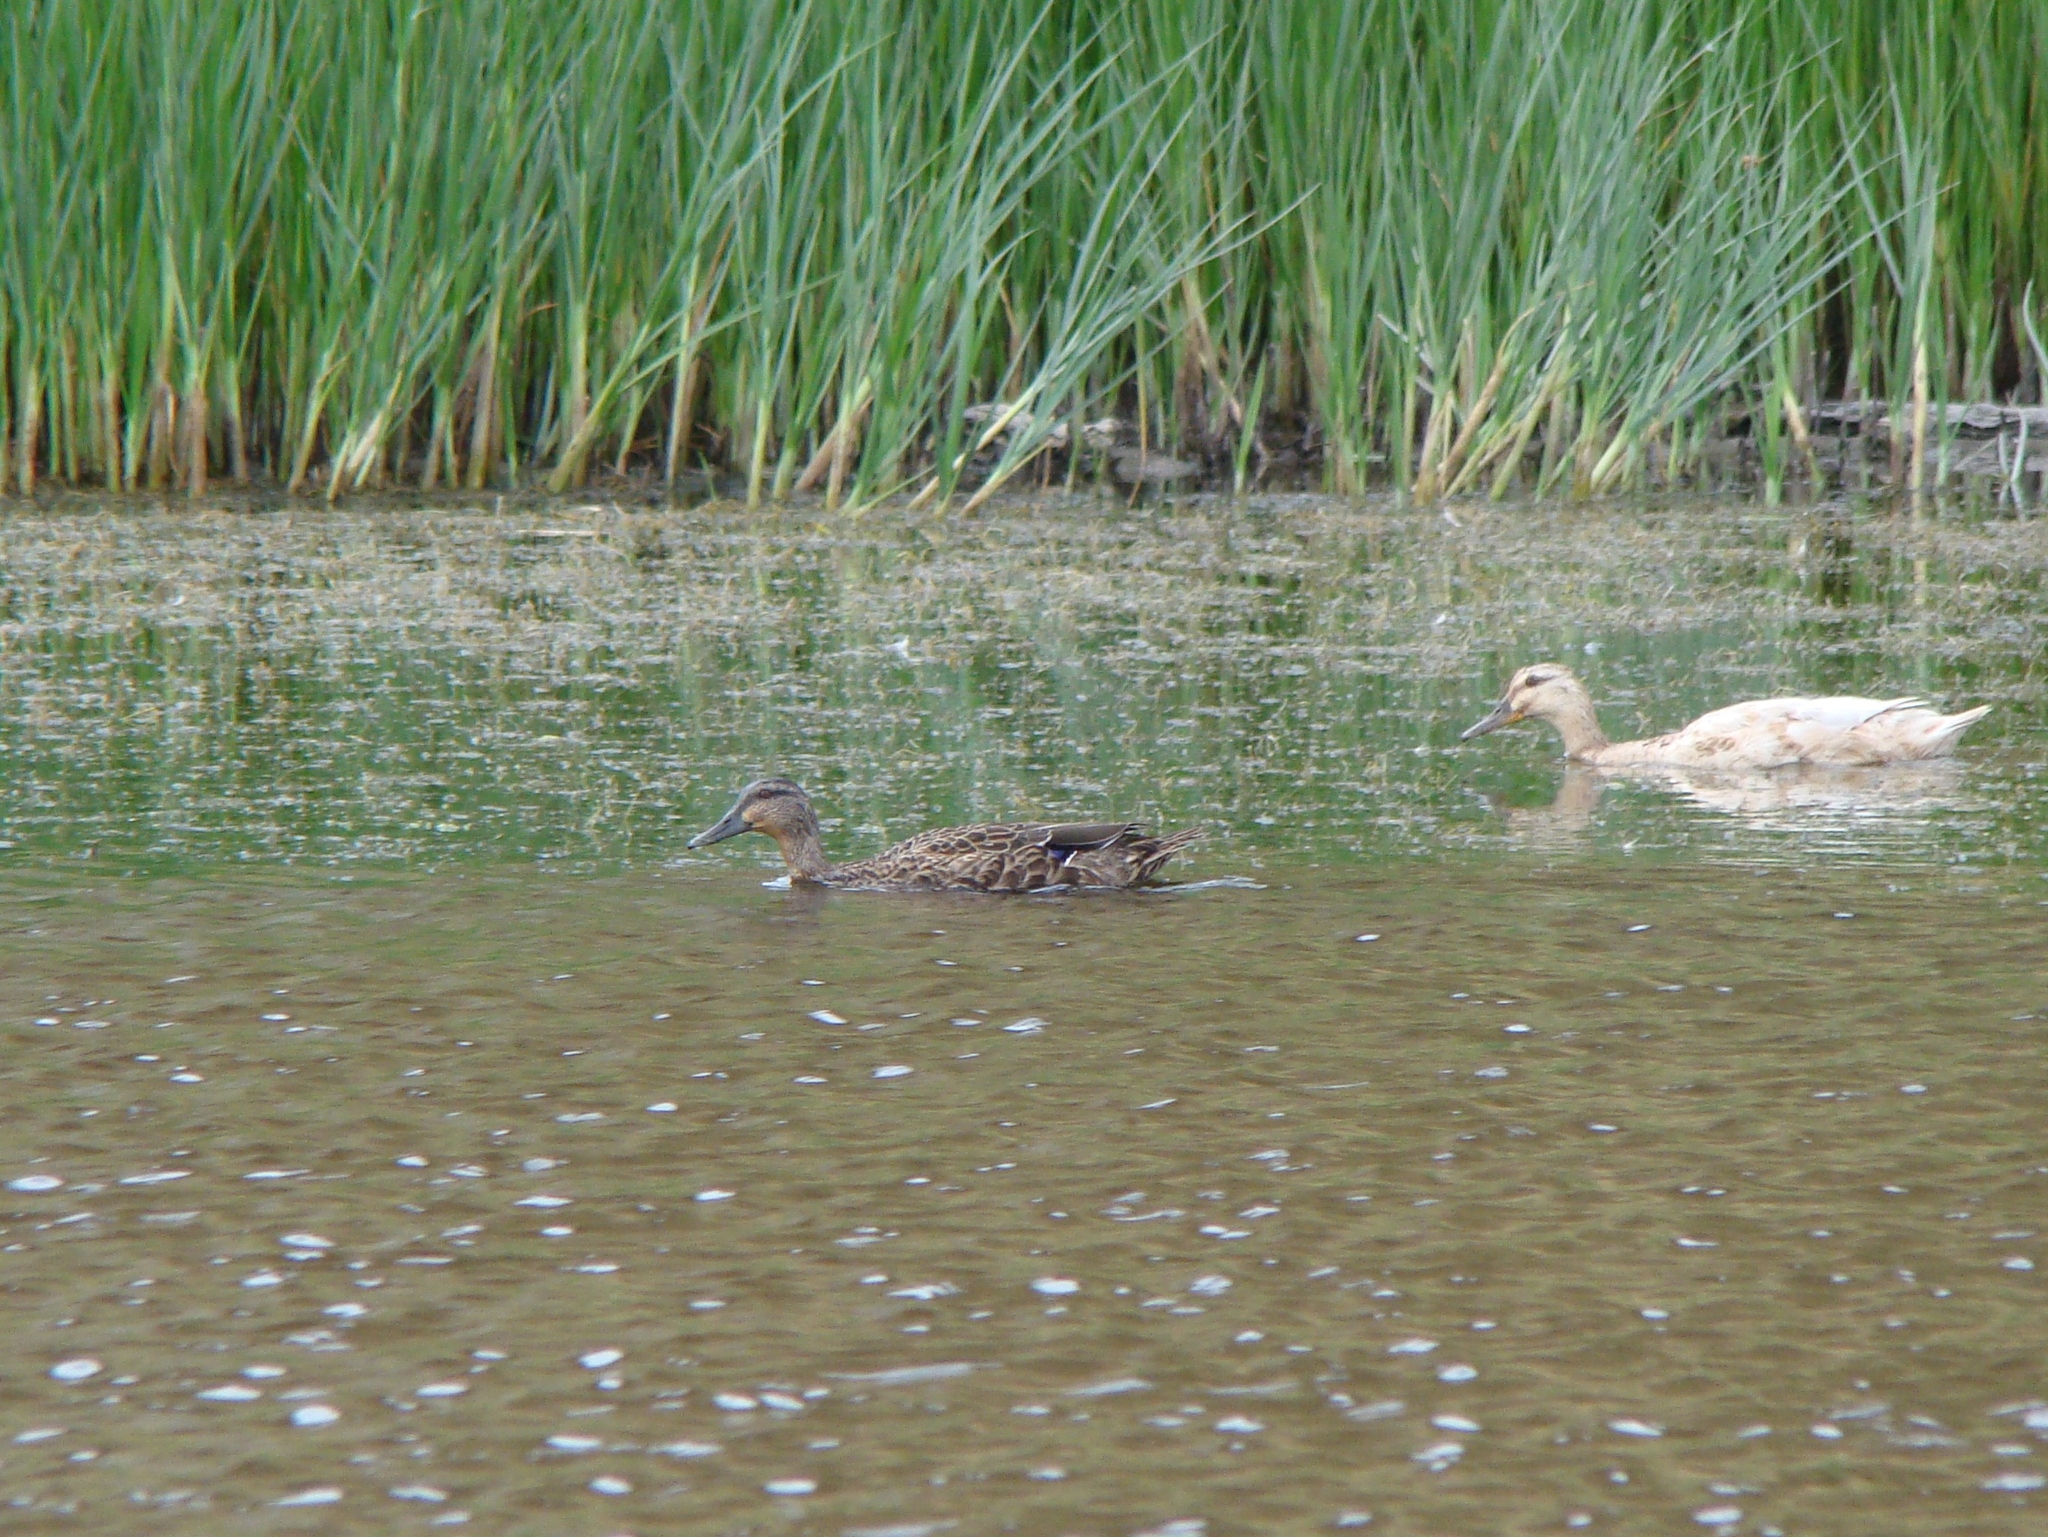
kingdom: Animalia
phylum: Chordata
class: Aves
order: Anseriformes
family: Anatidae
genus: Anas
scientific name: Anas
